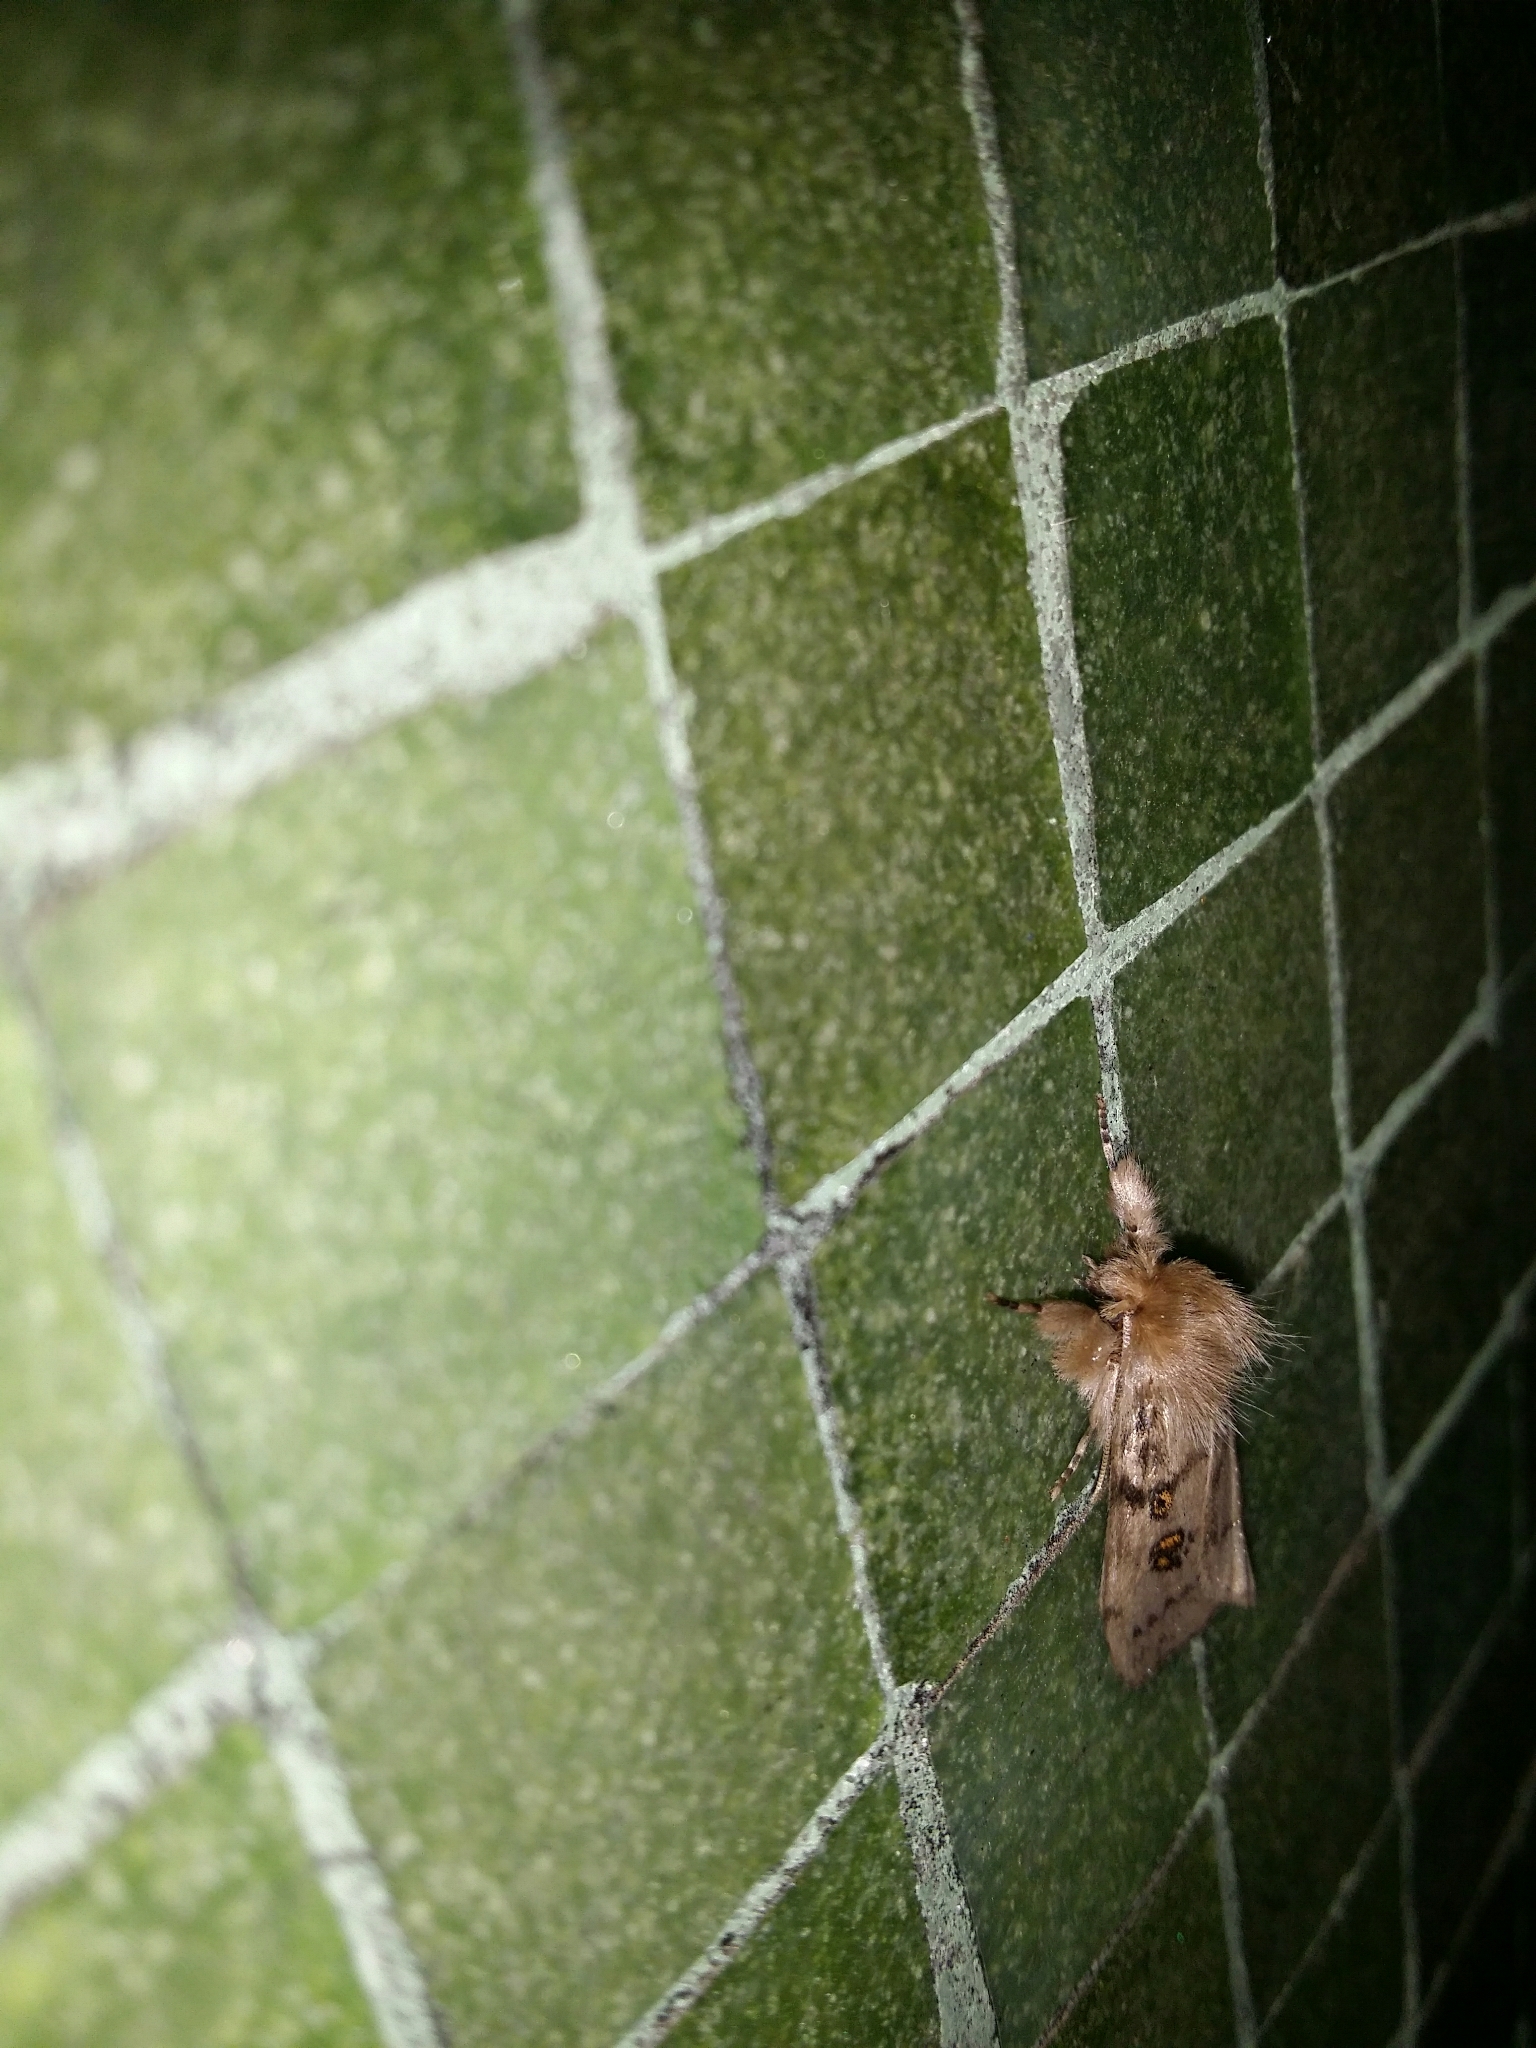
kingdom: Animalia
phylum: Arthropoda
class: Insecta
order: Lepidoptera
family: Erebidae
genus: Leptocneria
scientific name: Leptocneria reducta
